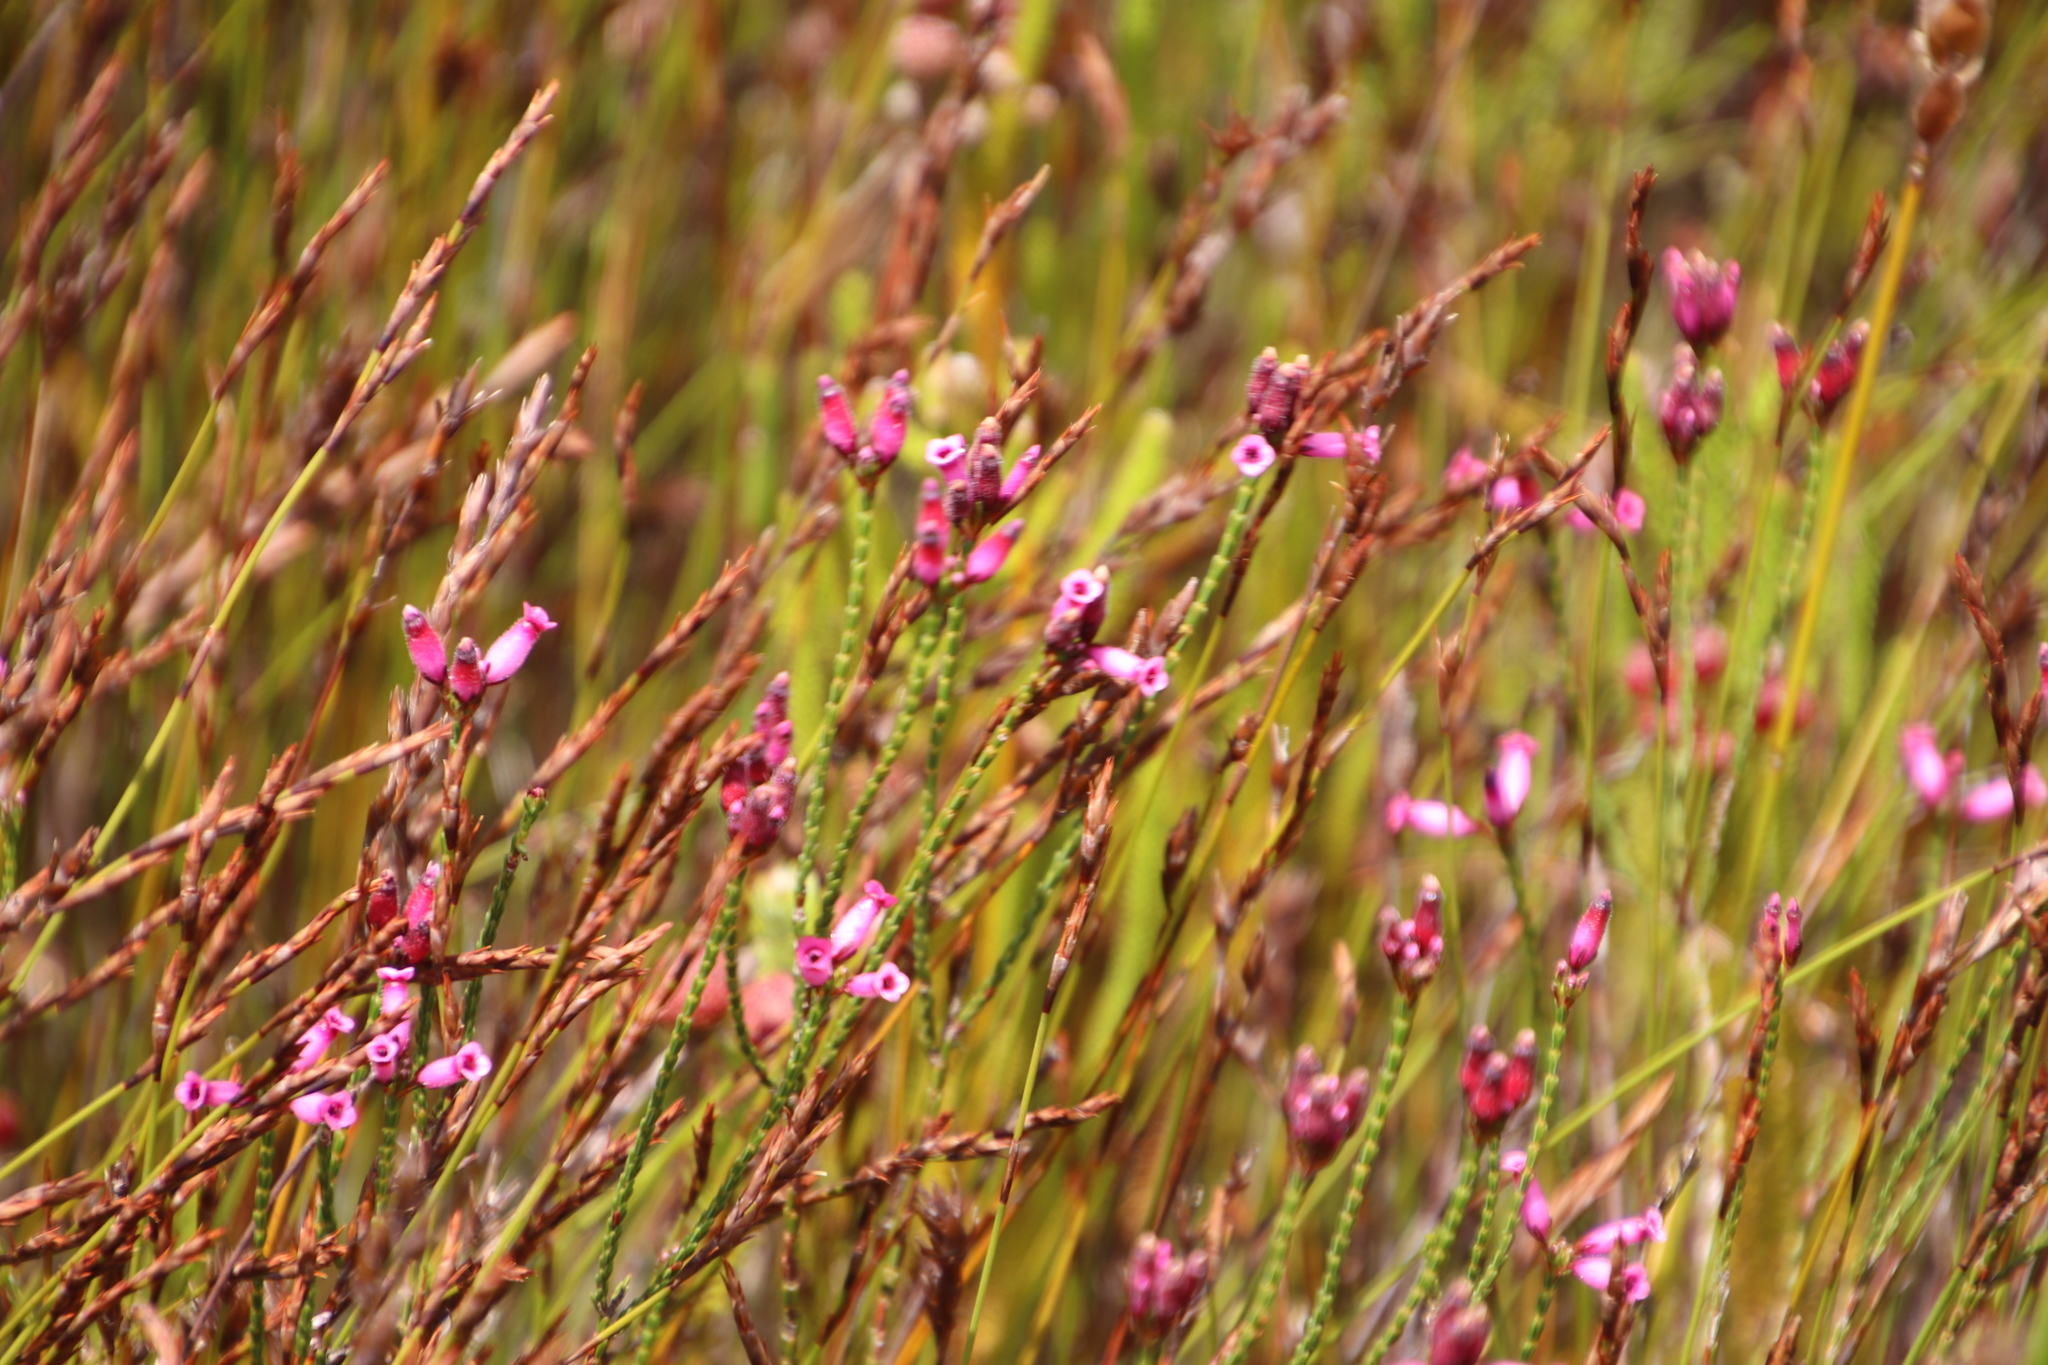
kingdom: Plantae
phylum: Tracheophyta
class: Magnoliopsida
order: Ericales
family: Ericaceae
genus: Erica
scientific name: Erica cristata
